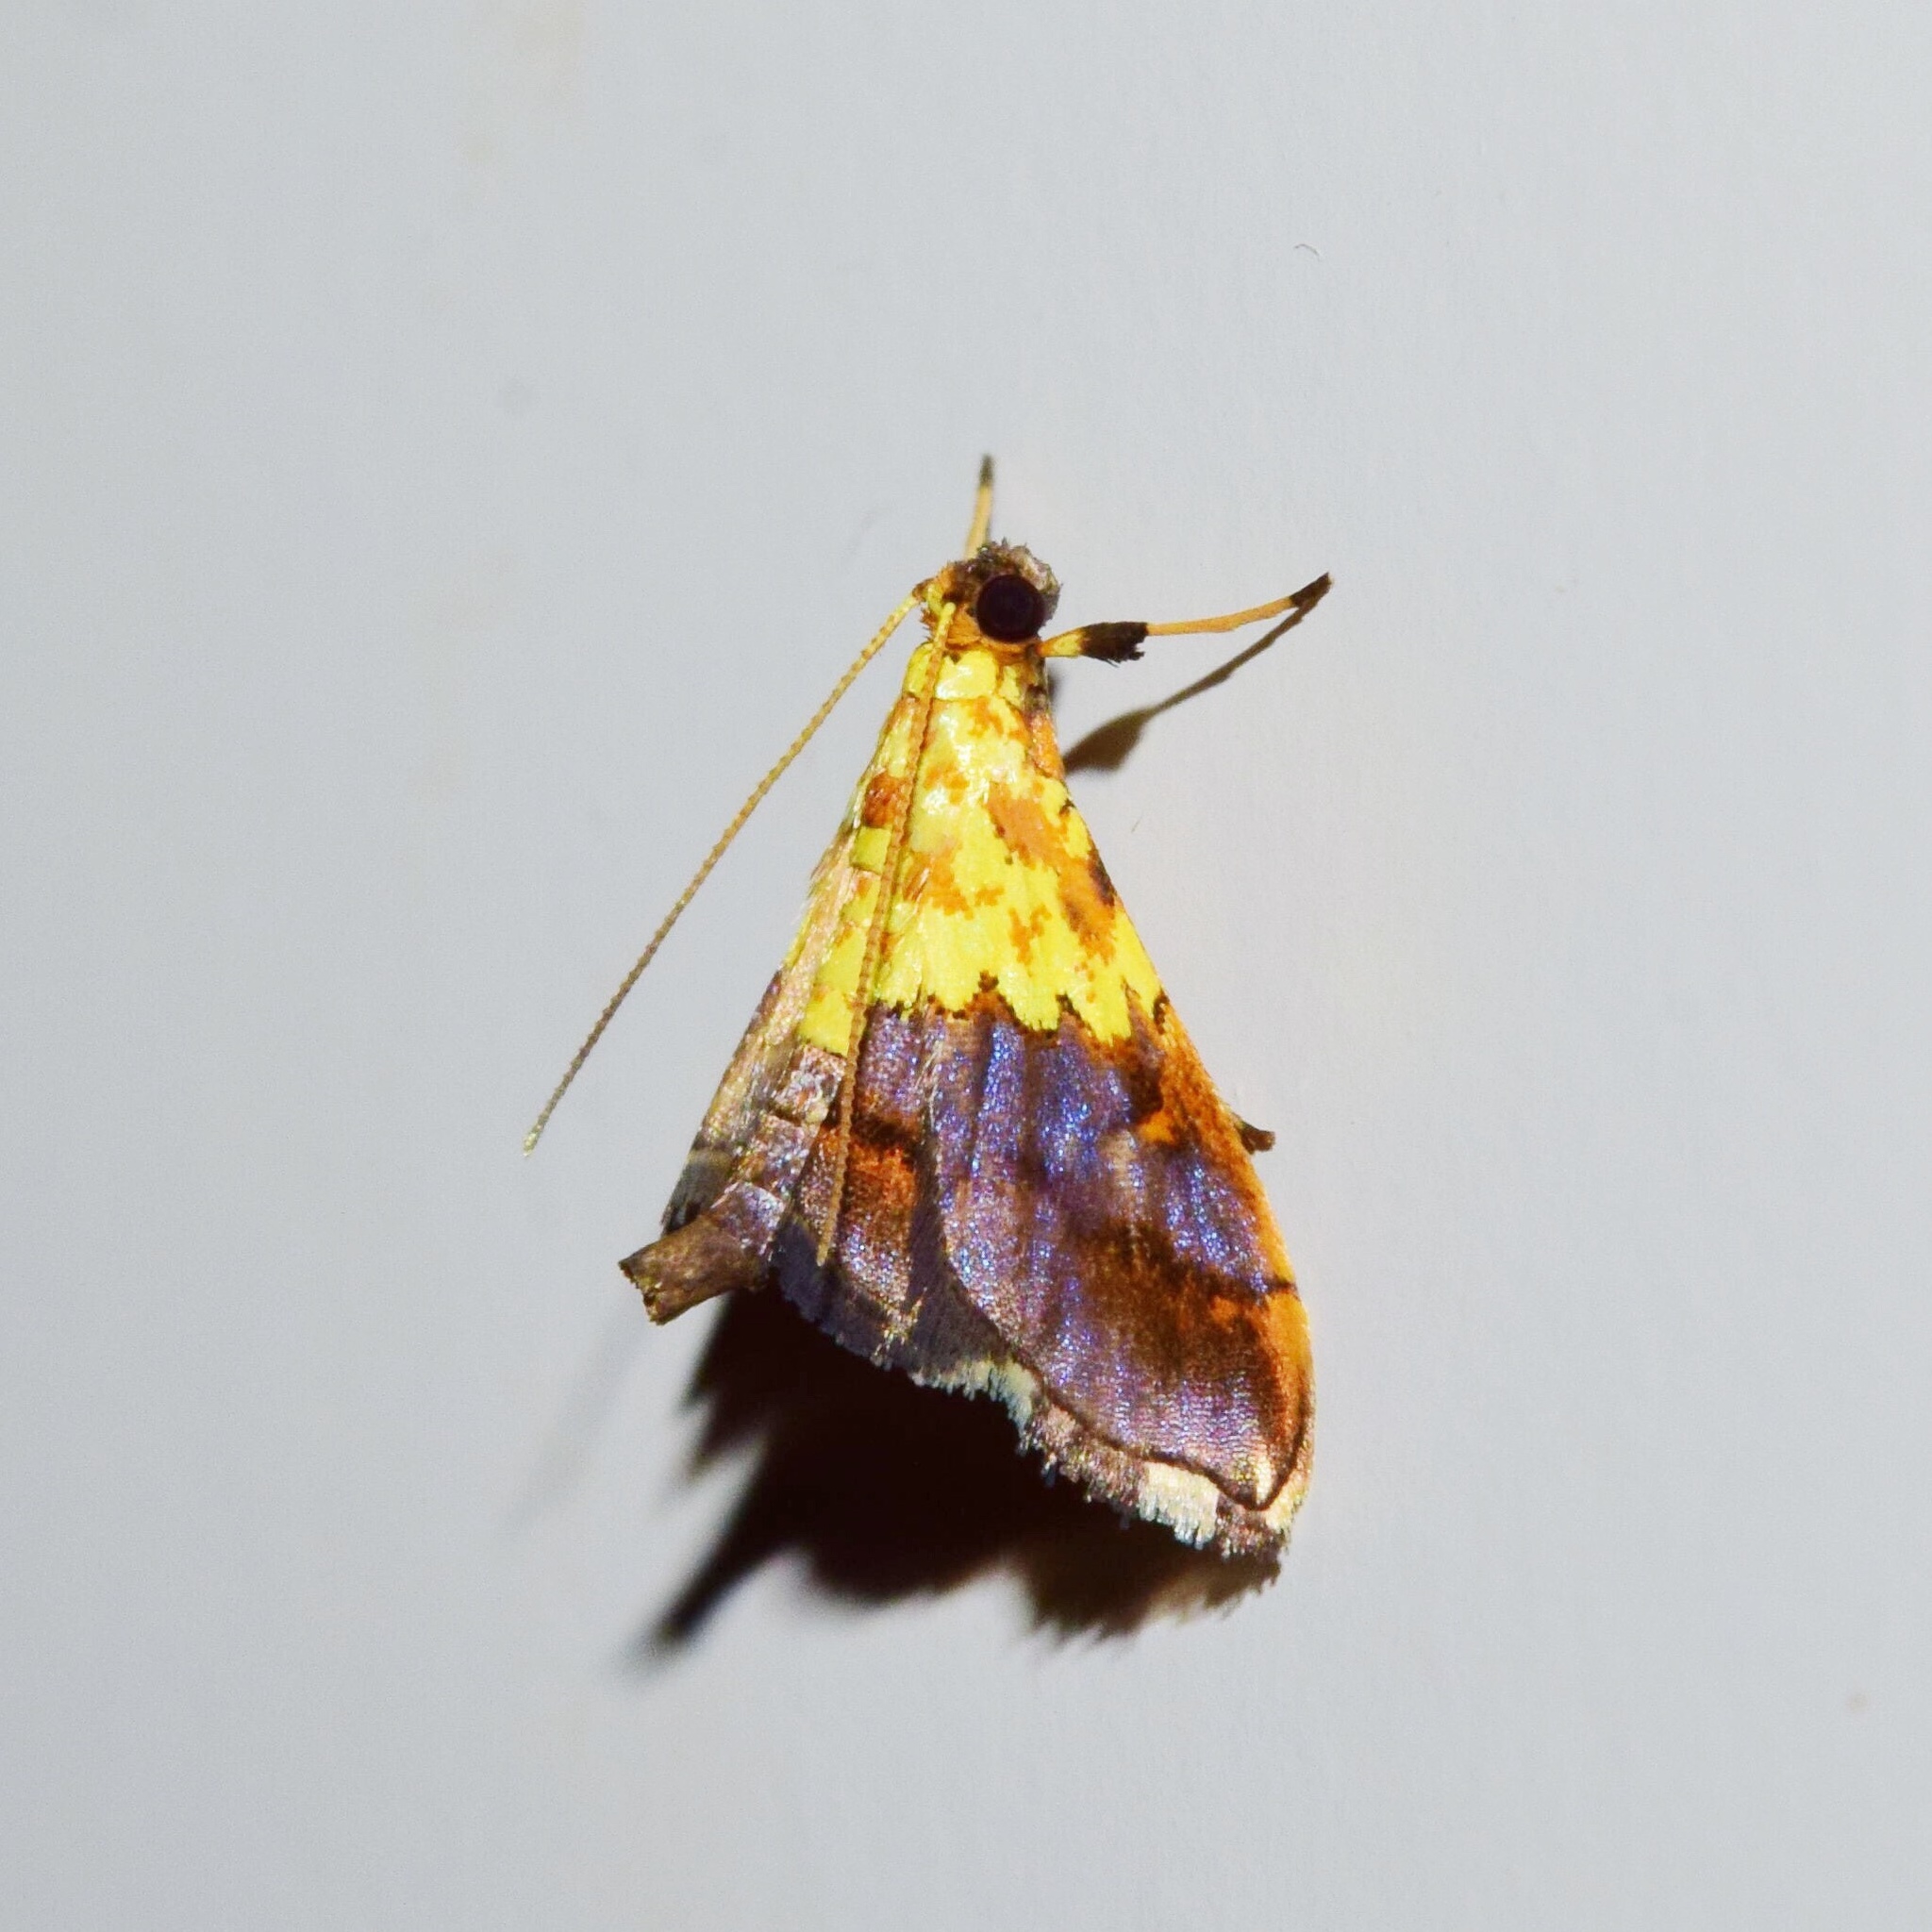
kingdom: Animalia
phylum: Arthropoda
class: Insecta
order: Lepidoptera
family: Crambidae
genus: Agrotera
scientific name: Agrotera citrina
